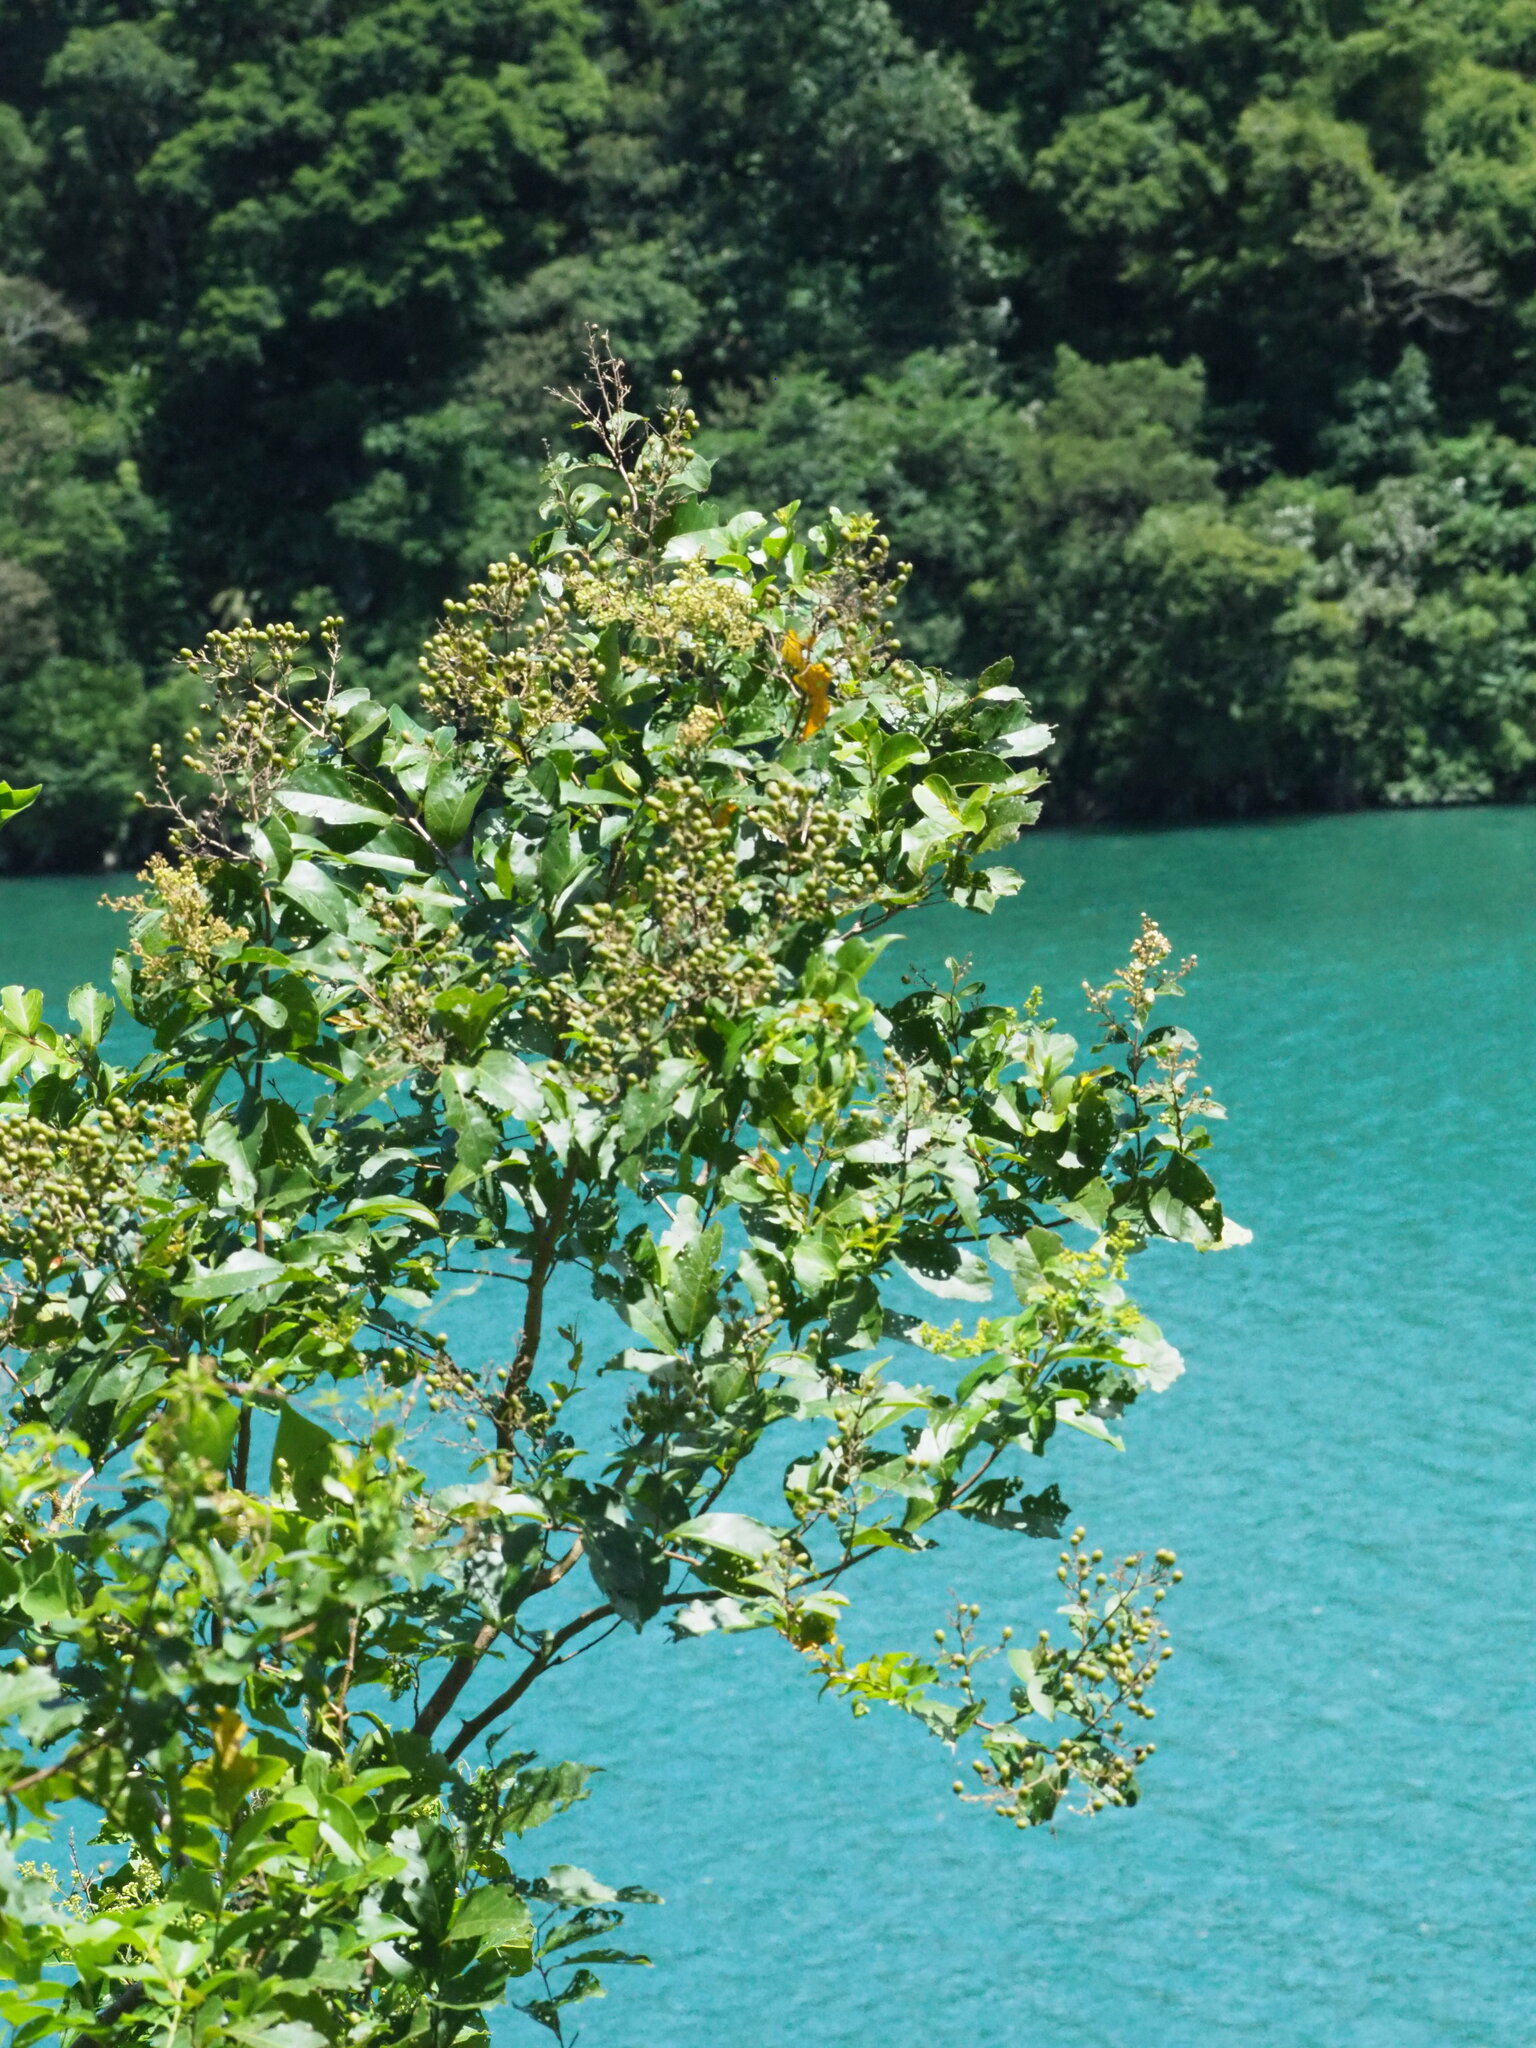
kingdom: Plantae
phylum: Tracheophyta
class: Magnoliopsida
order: Myrtales
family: Lythraceae
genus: Lagerstroemia
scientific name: Lagerstroemia subcostata
